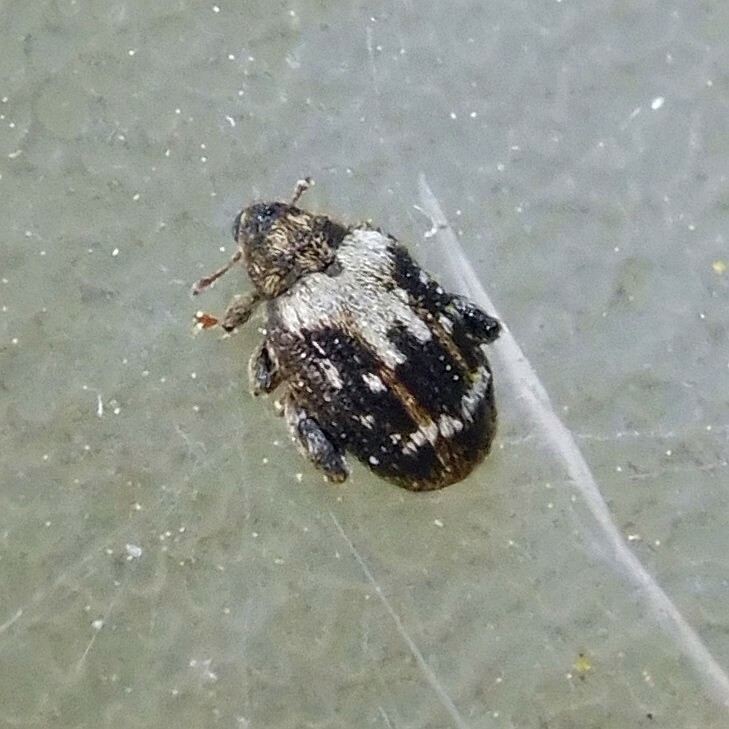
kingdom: Animalia
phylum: Arthropoda
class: Insecta
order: Coleoptera
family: Curculionidae
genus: Orchestes
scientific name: Orchestes hortorum
